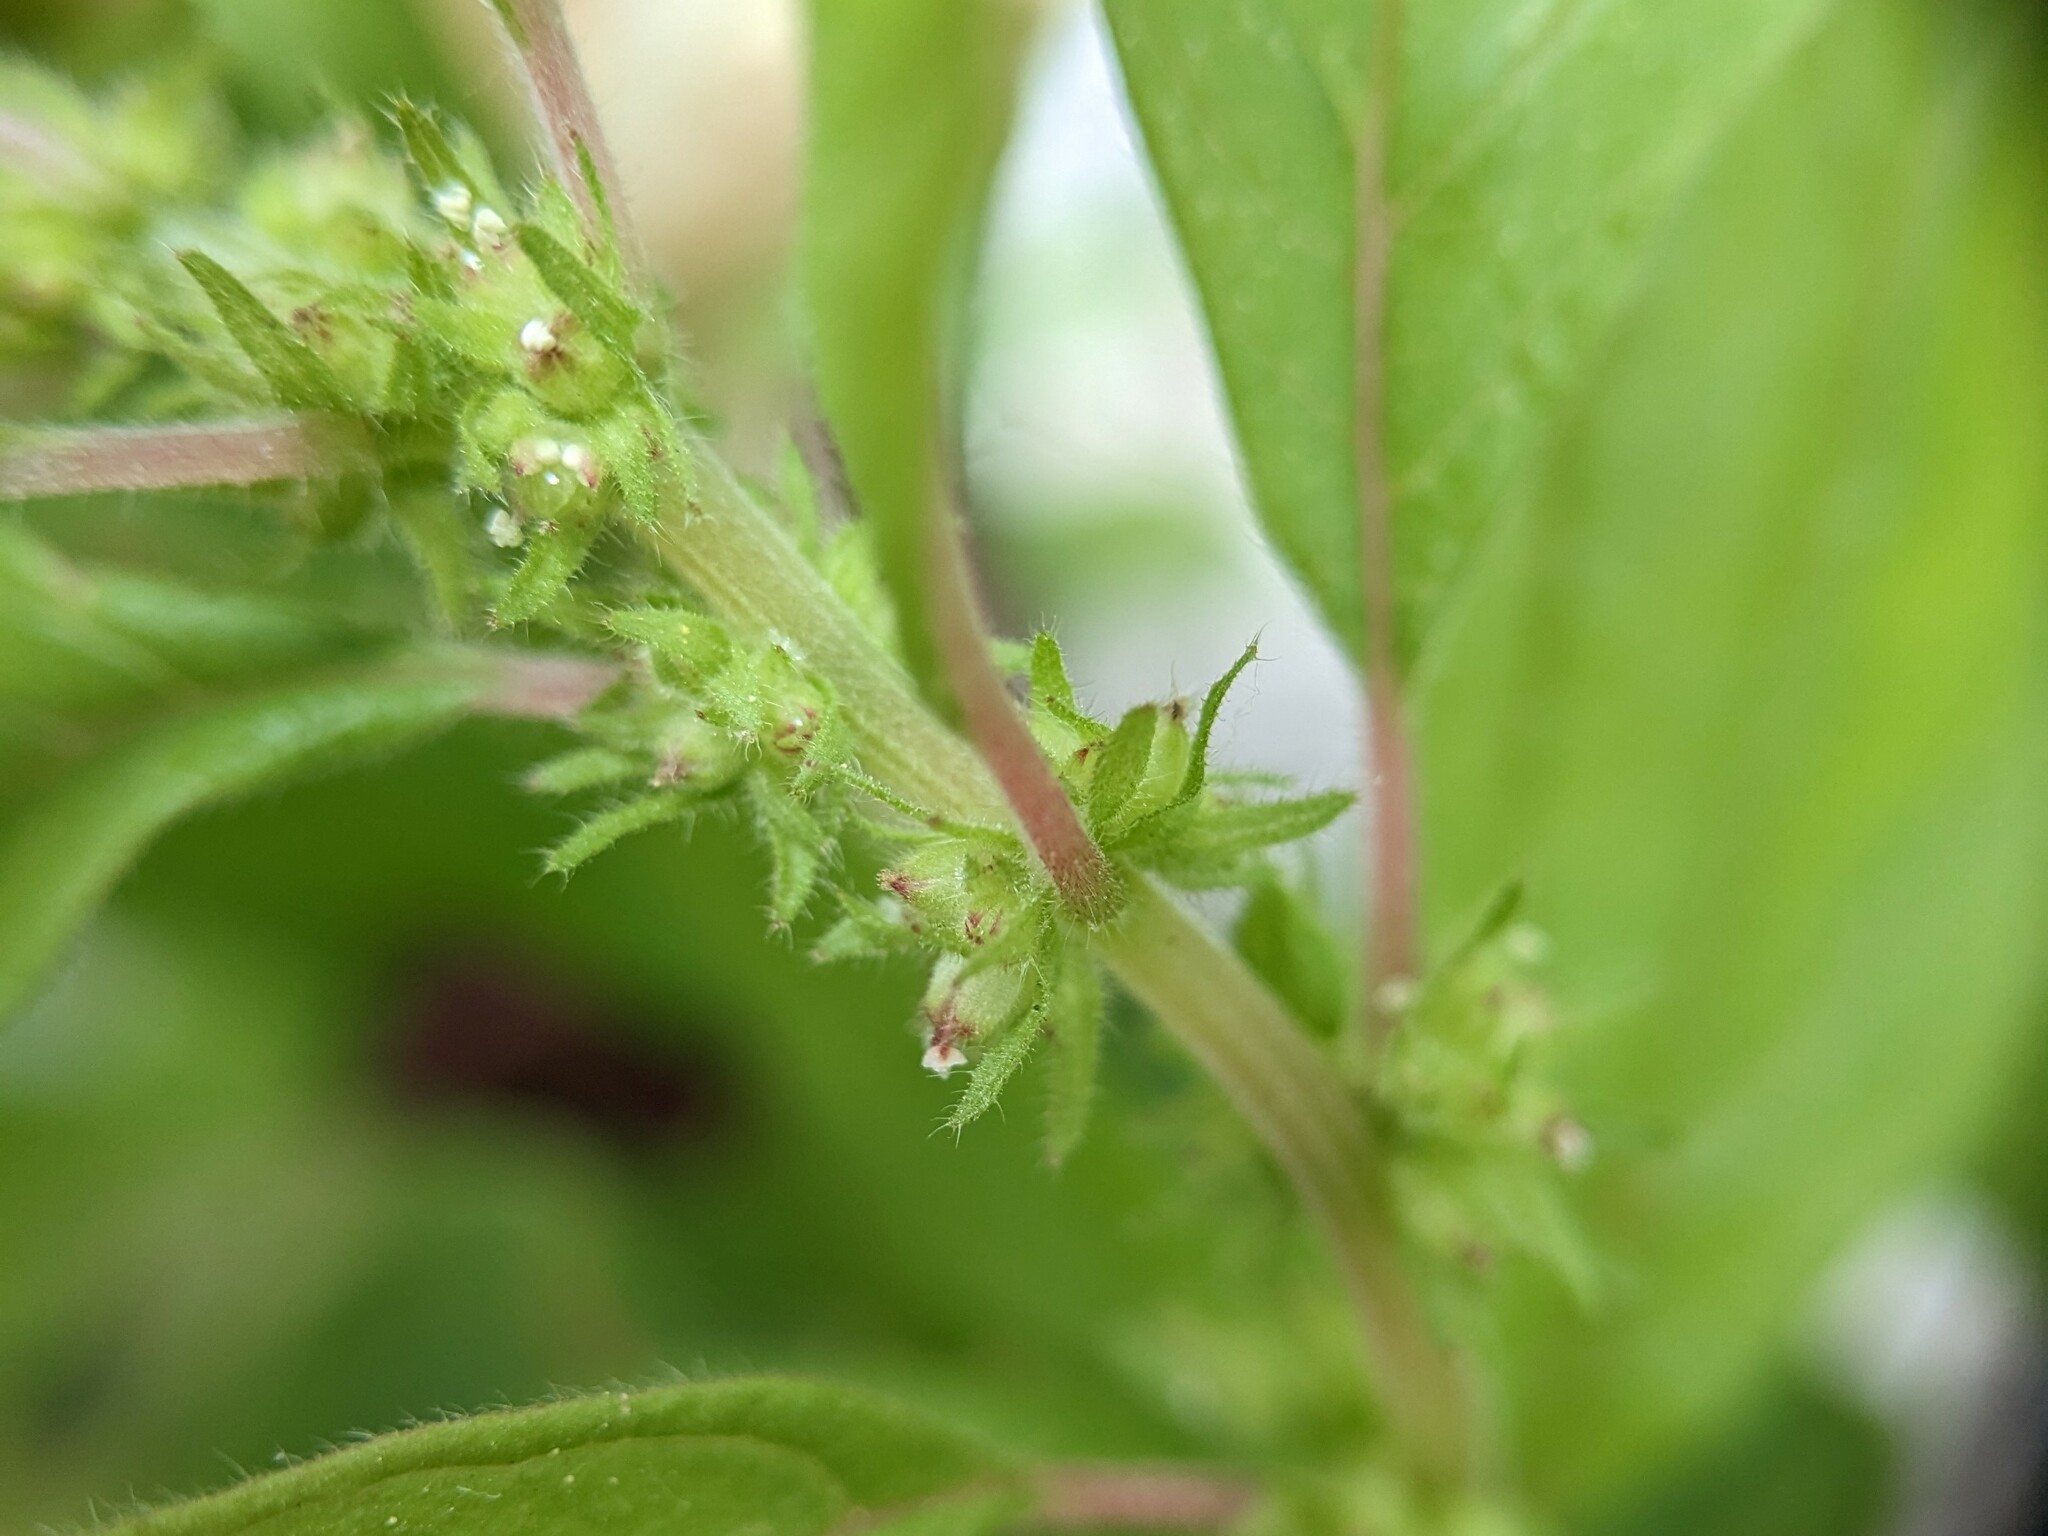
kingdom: Plantae
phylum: Tracheophyta
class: Magnoliopsida
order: Rosales
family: Urticaceae
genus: Parietaria
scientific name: Parietaria pensylvanica
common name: Pennsylvania pellitory
